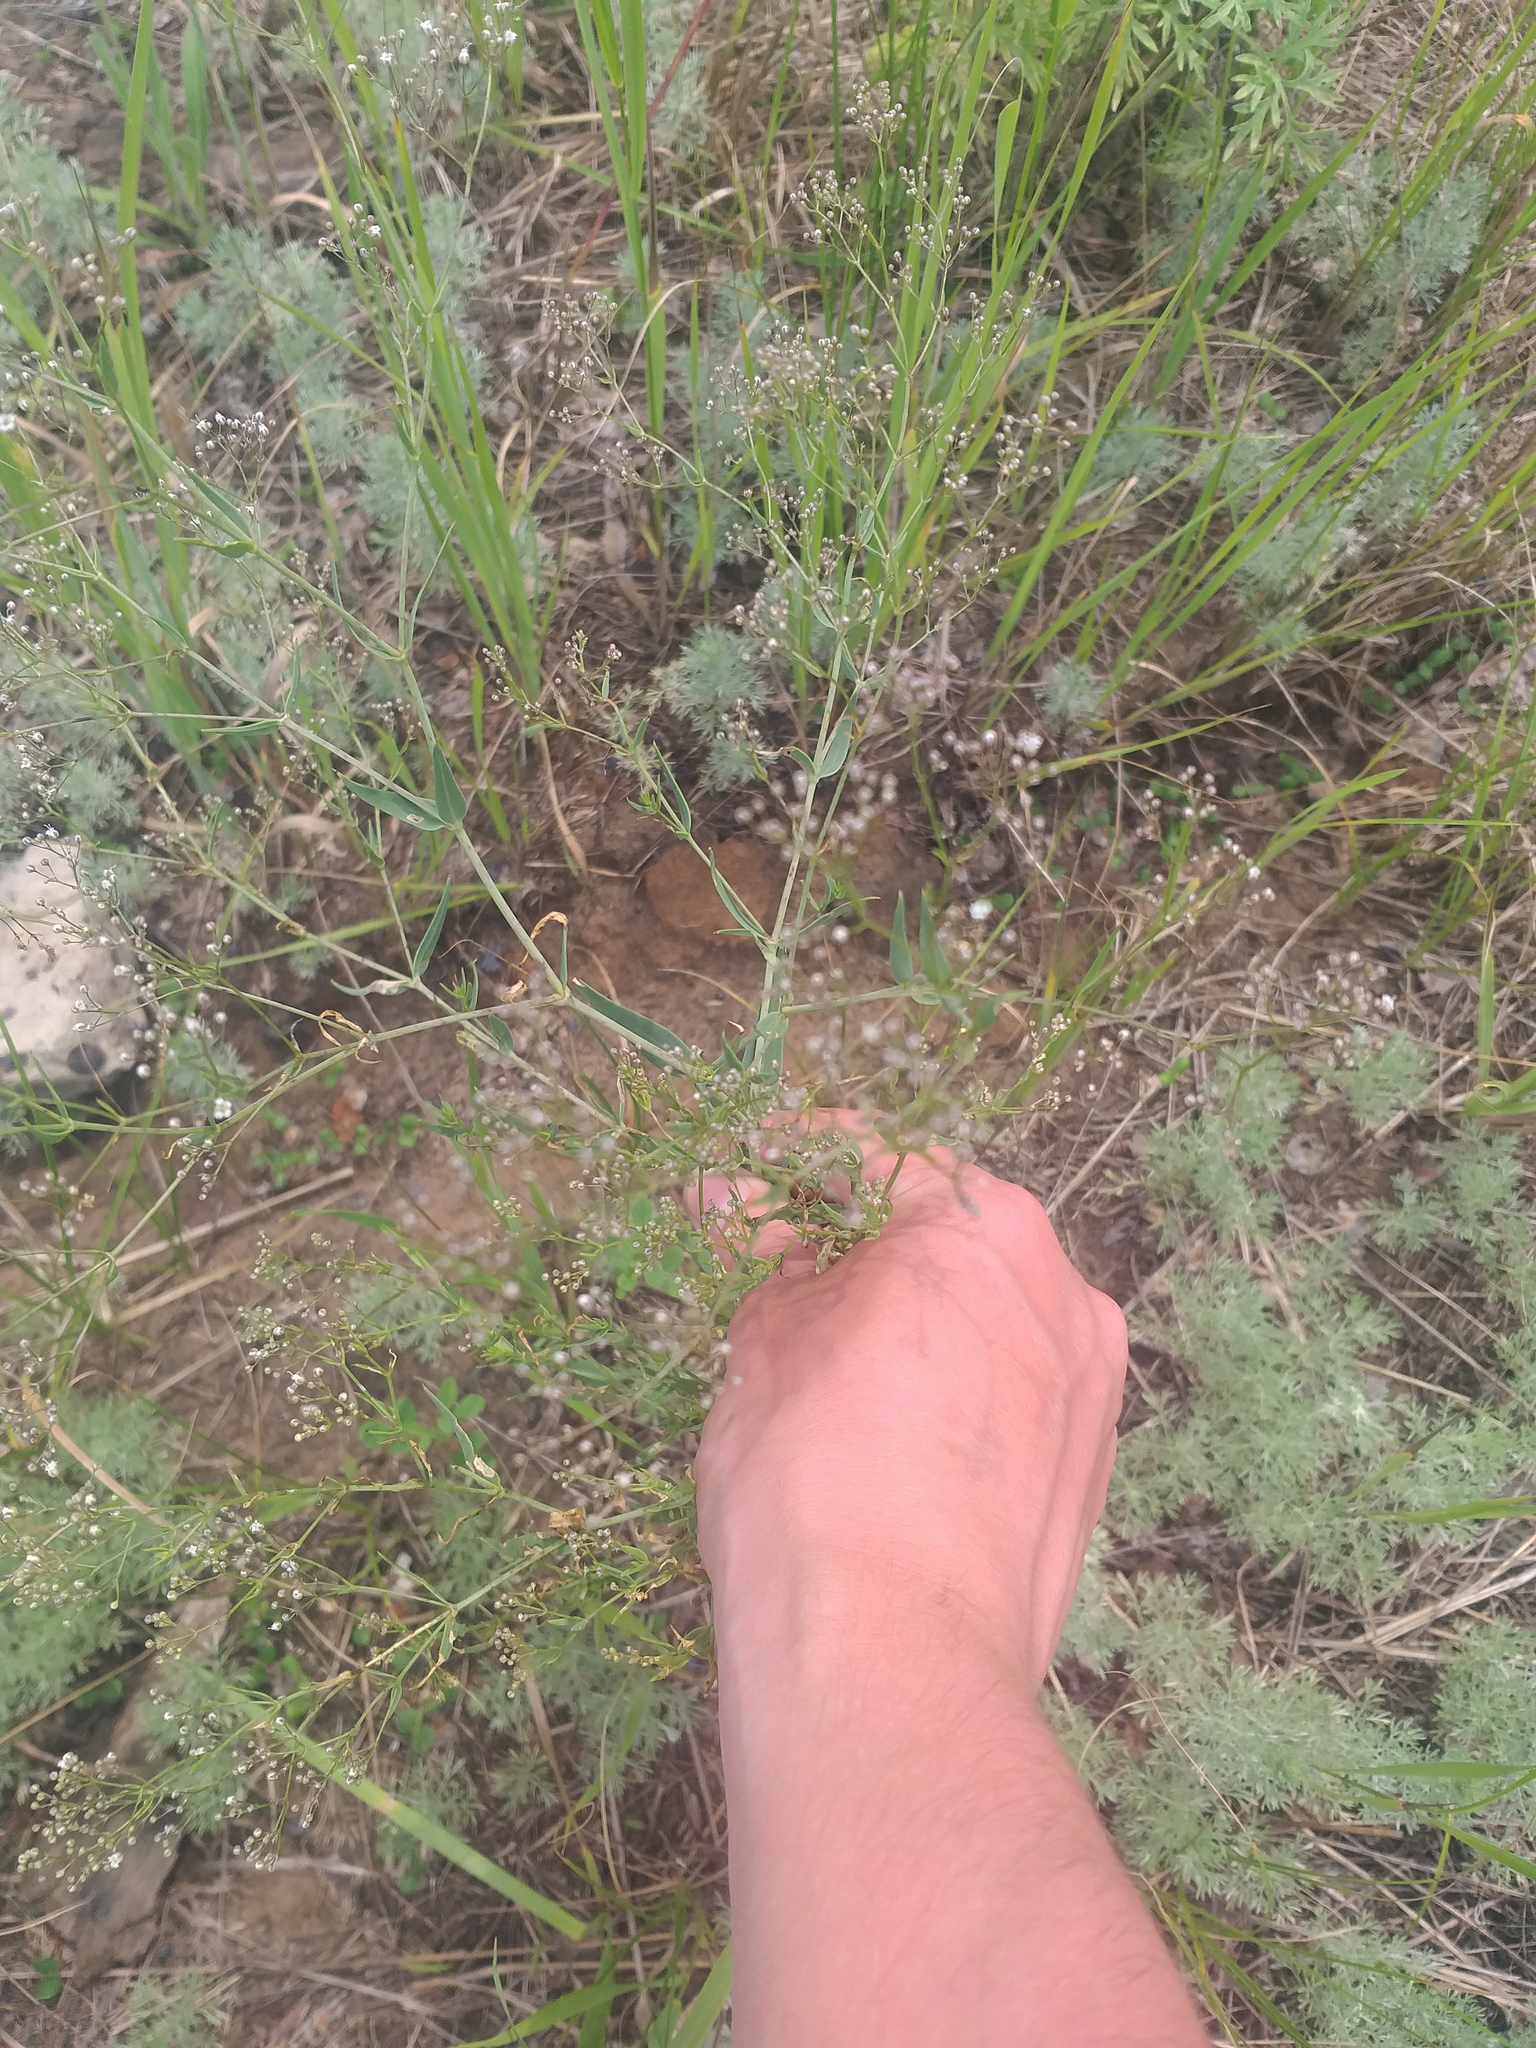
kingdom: Plantae
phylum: Tracheophyta
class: Magnoliopsida
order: Caryophyllales
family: Caryophyllaceae
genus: Gypsophila
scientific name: Gypsophila paniculata
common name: Baby's-breath
